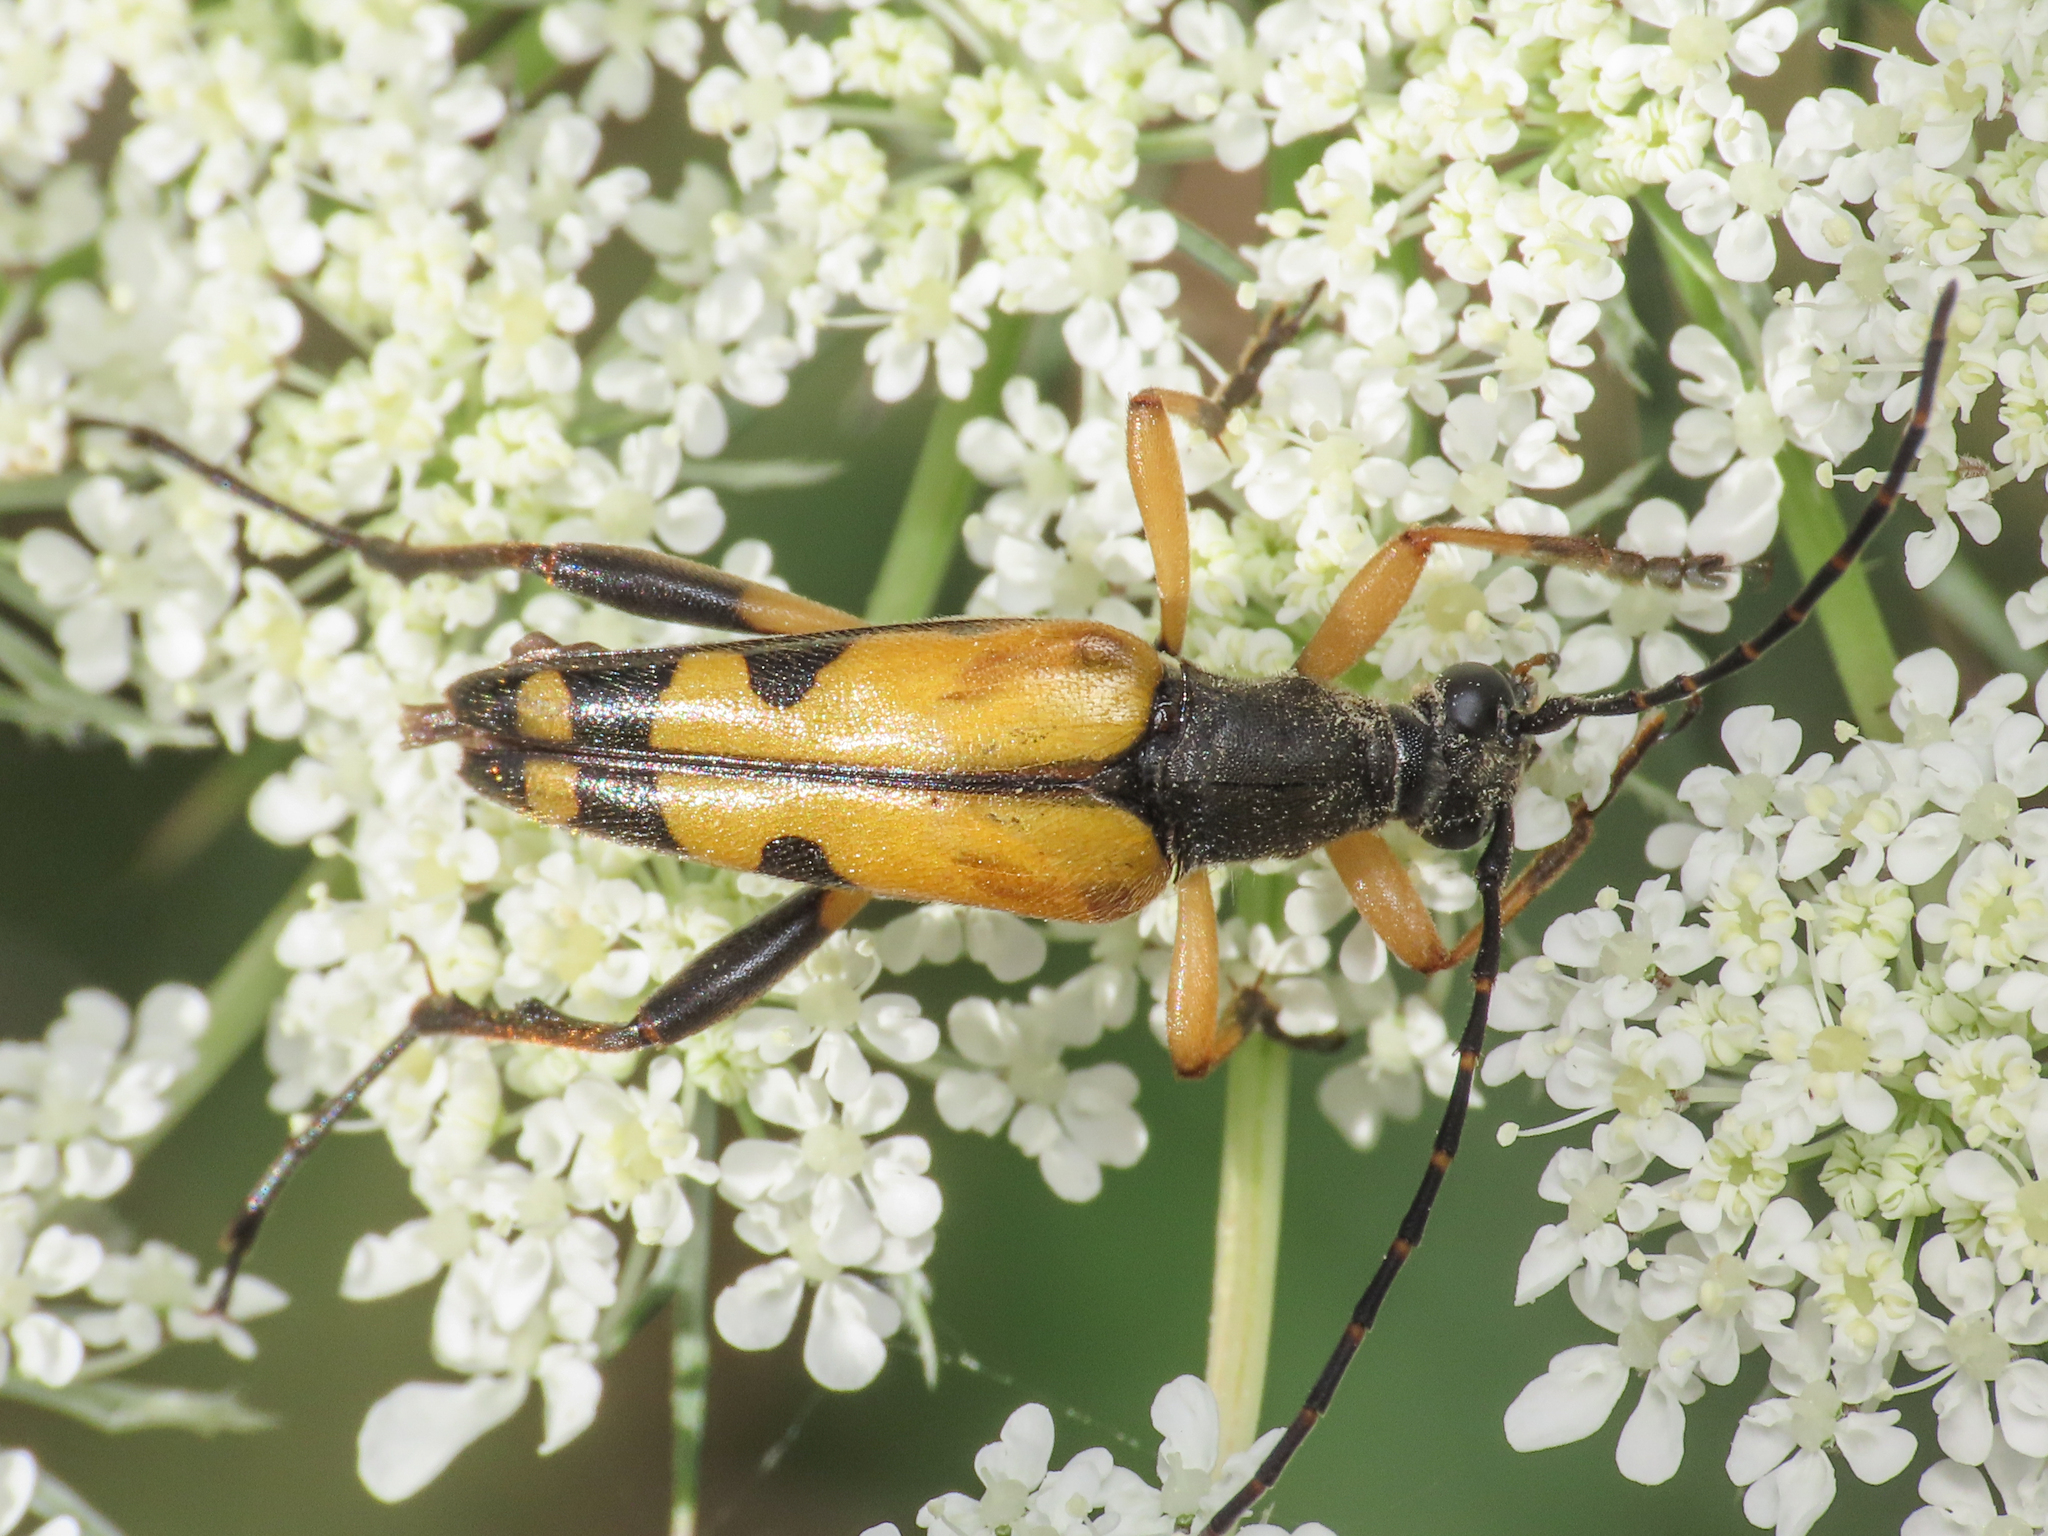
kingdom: Animalia
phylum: Arthropoda
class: Insecta
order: Coleoptera
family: Cerambycidae
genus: Rutpela
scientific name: Rutpela maculata
